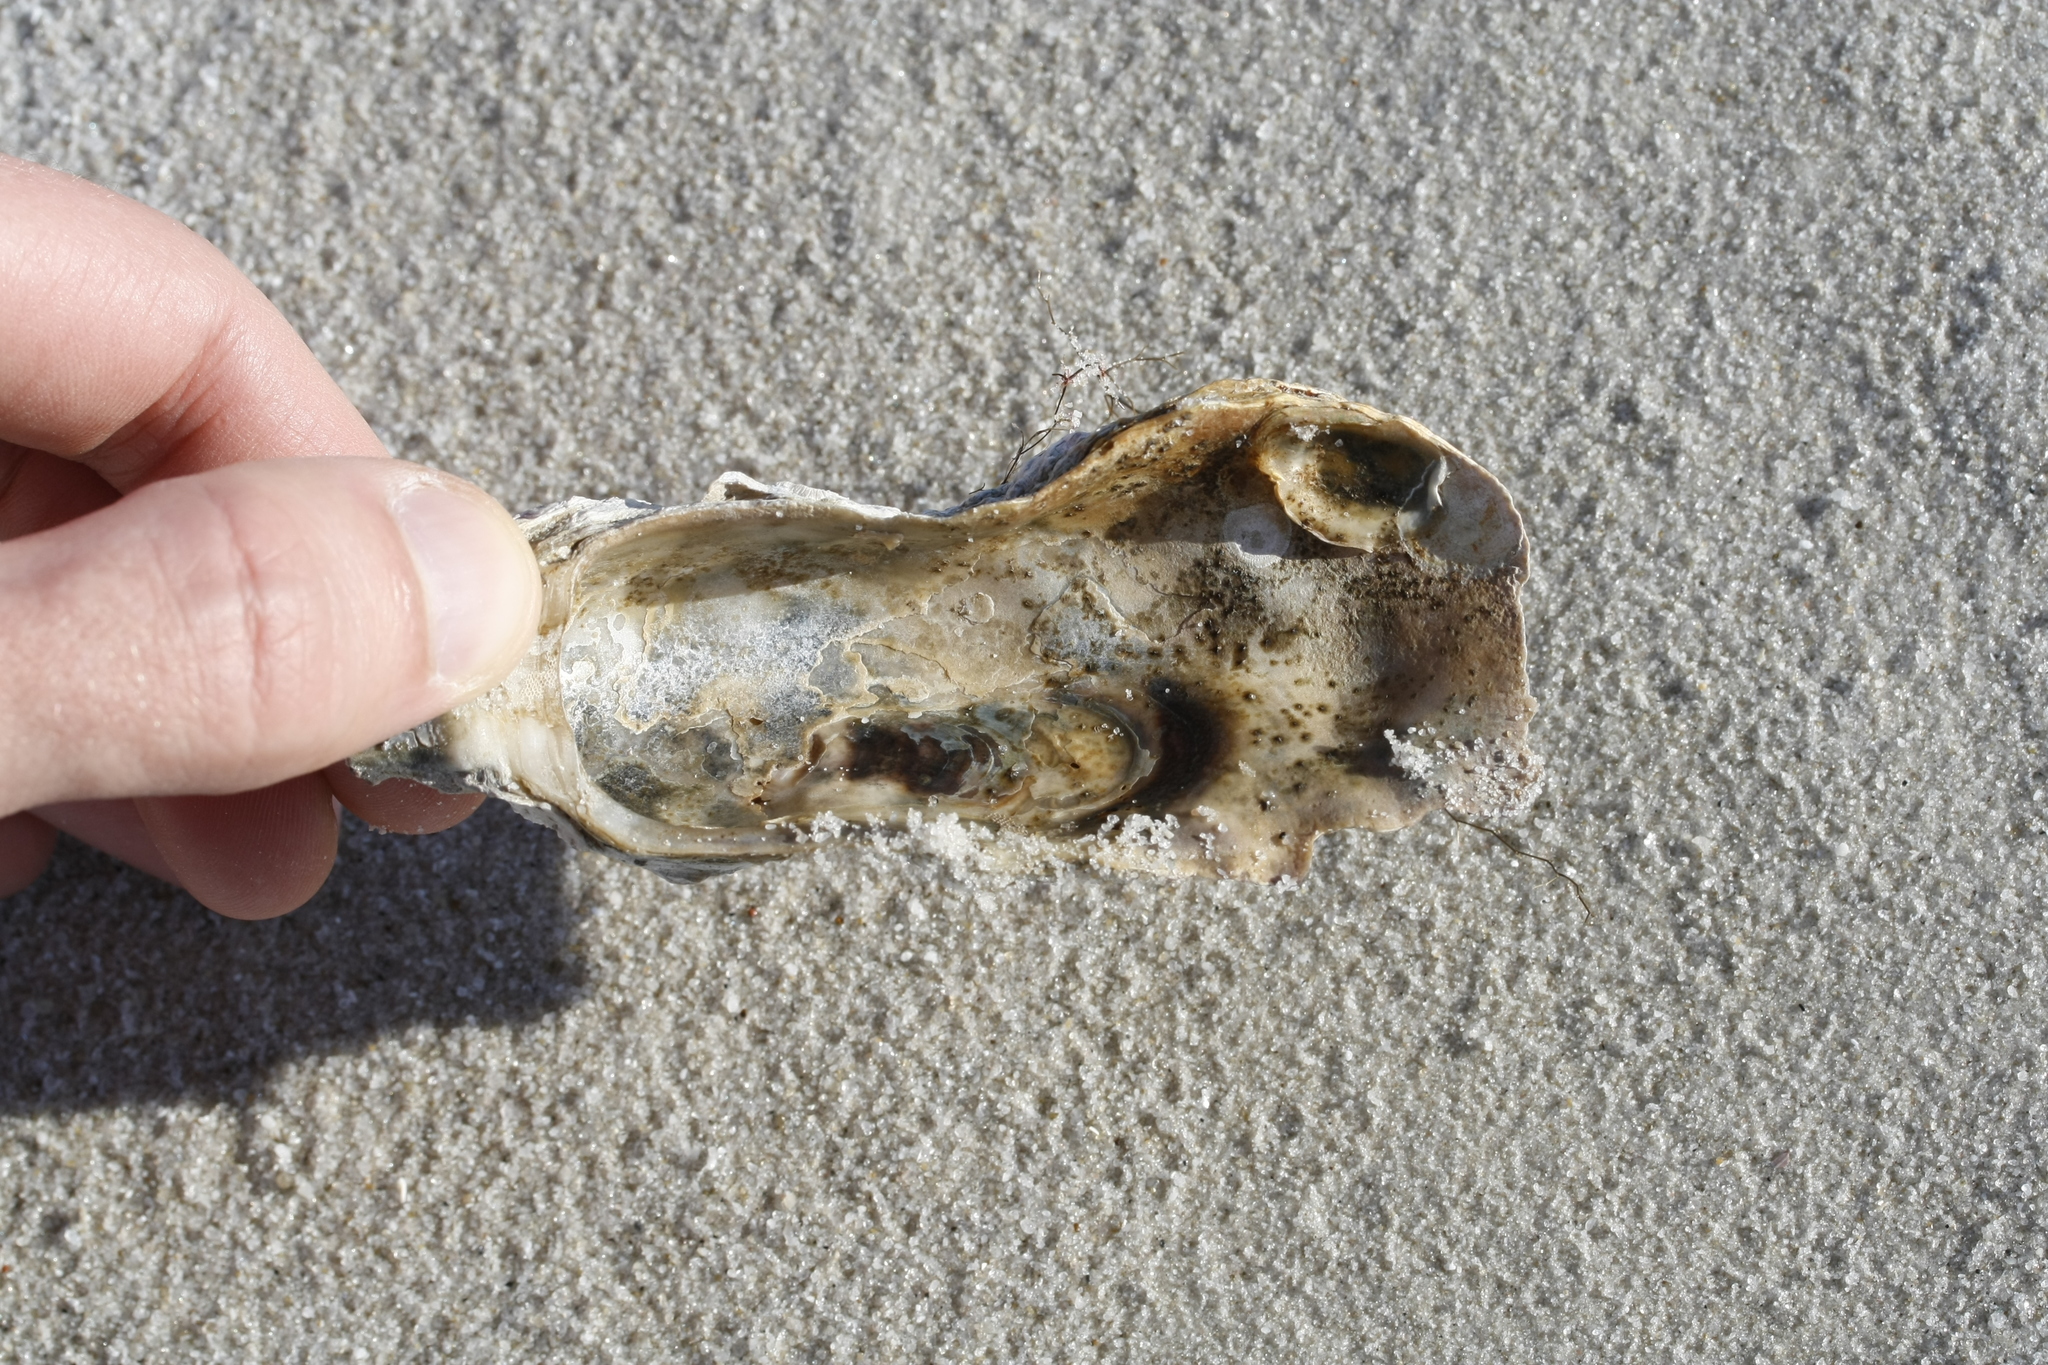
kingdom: Animalia
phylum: Mollusca
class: Bivalvia
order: Ostreida
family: Ostreidae
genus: Magallana
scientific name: Magallana gigas
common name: Pacific oyster
